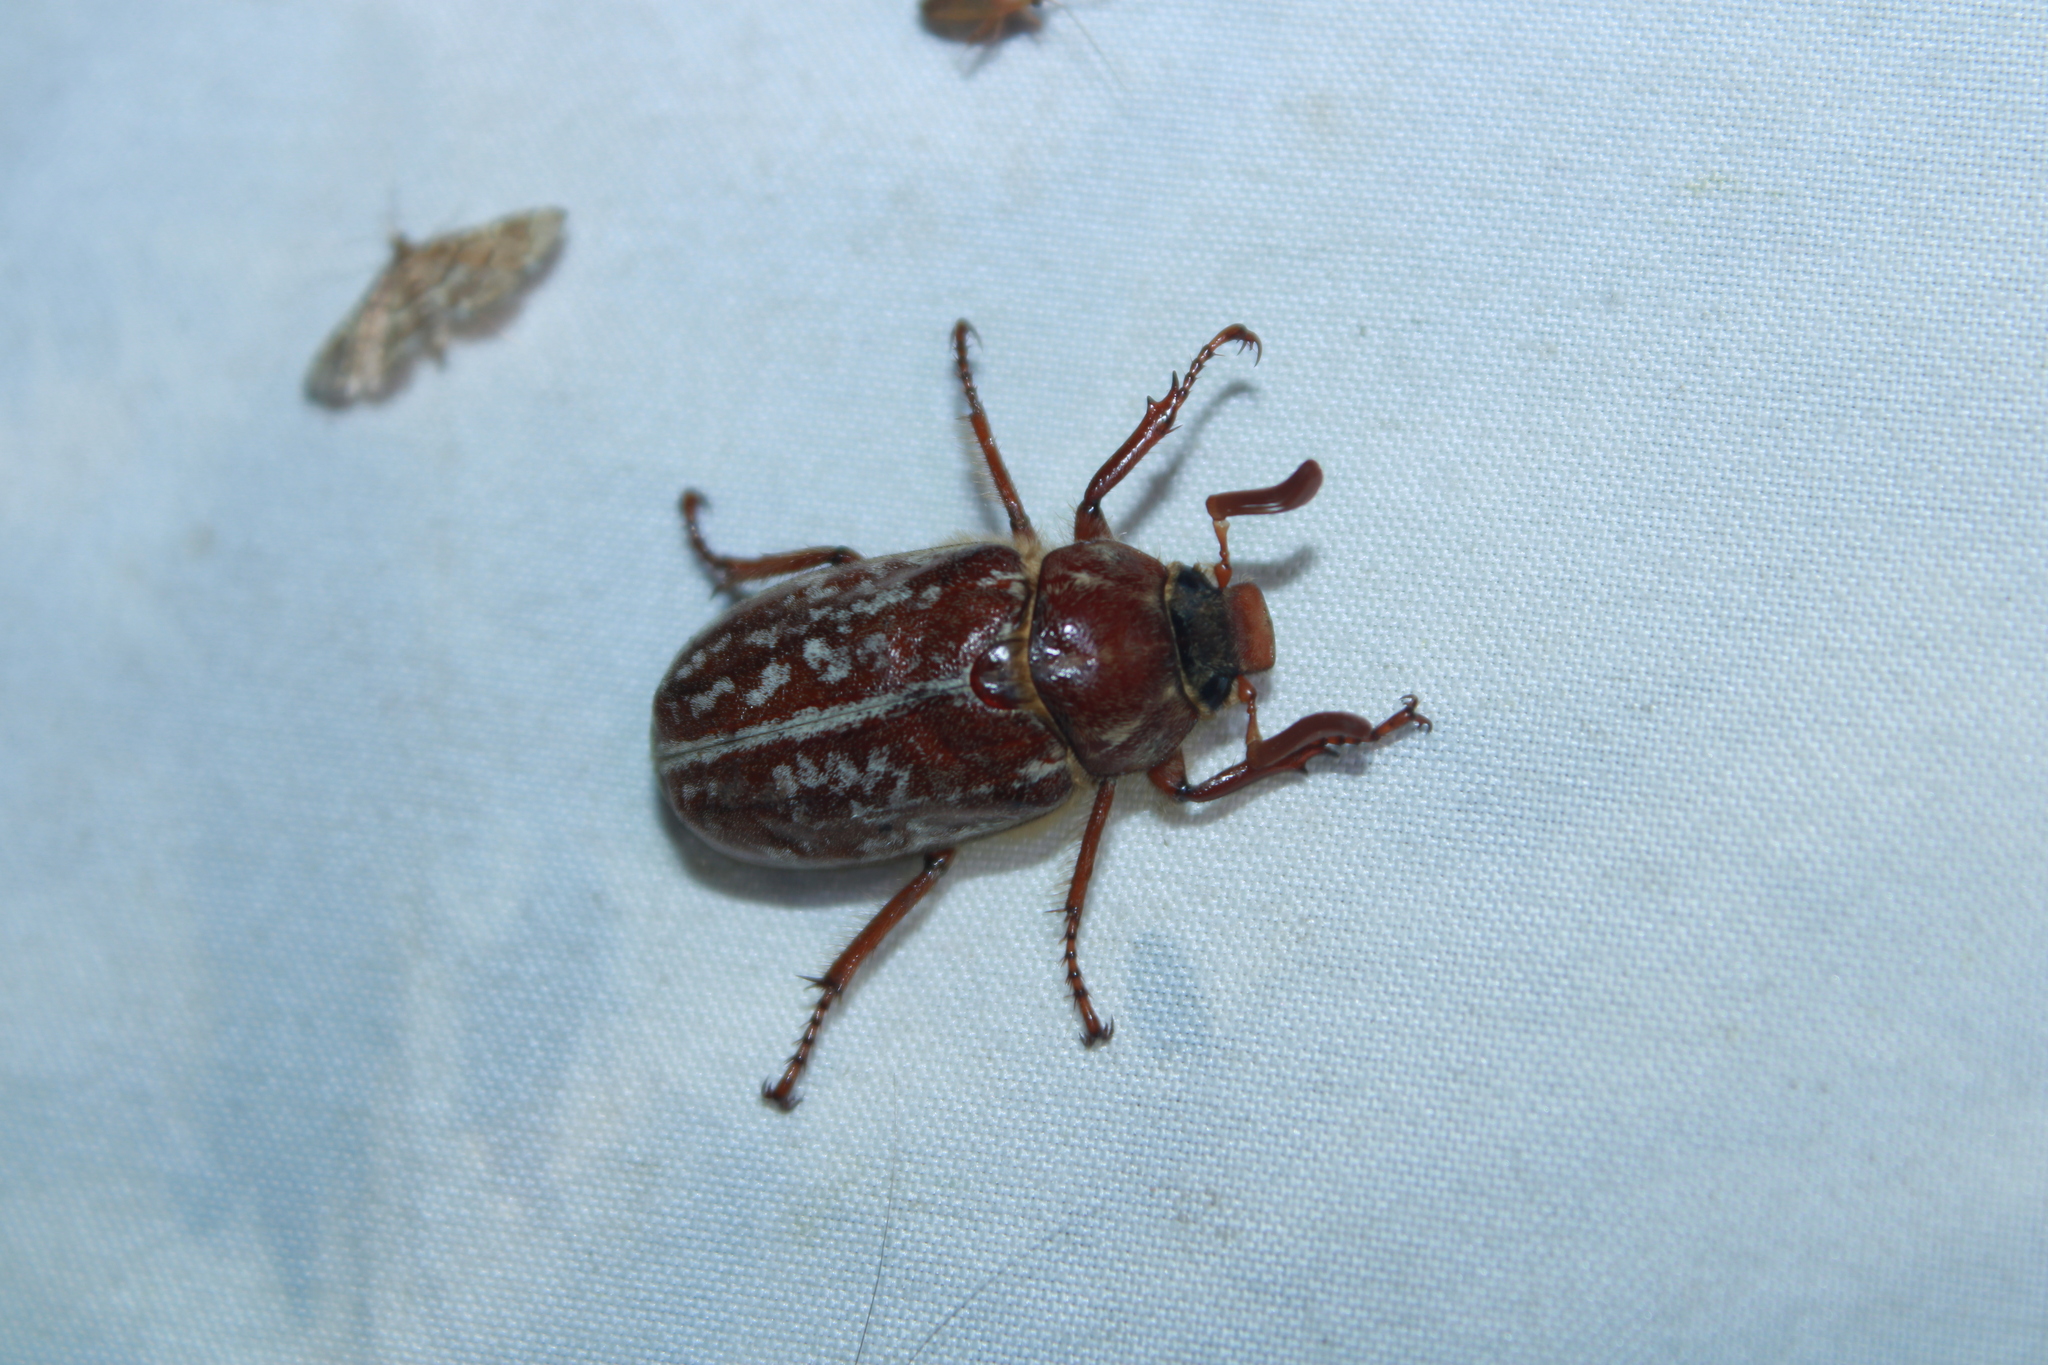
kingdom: Animalia
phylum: Arthropoda
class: Insecta
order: Coleoptera
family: Scarabaeidae
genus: Polyphylla
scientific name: Polyphylla variolosa
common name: Variegated june beetle
